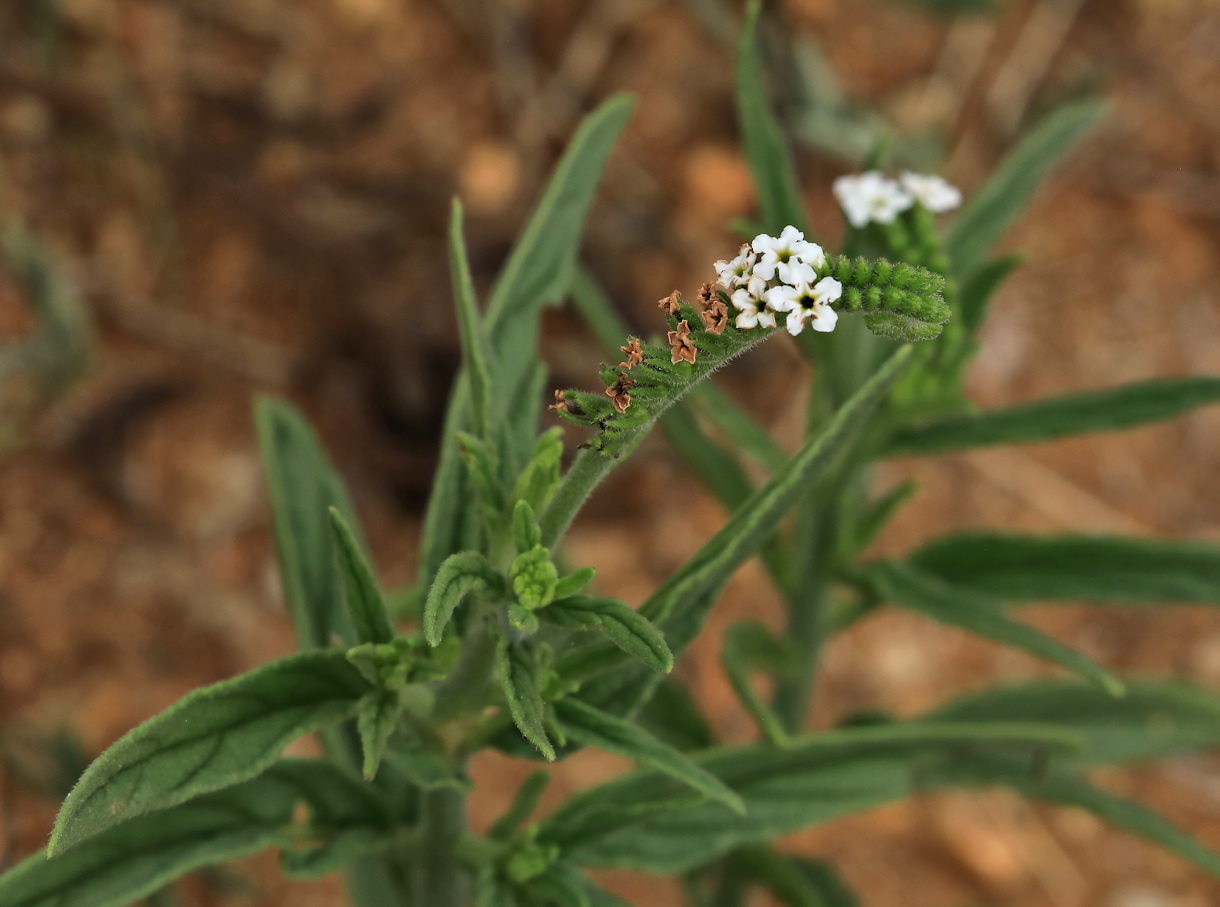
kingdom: Plantae
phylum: Tracheophyta
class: Magnoliopsida
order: Boraginales
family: Heliotropiaceae
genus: Heliotropium
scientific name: Heliotropium steudneri
